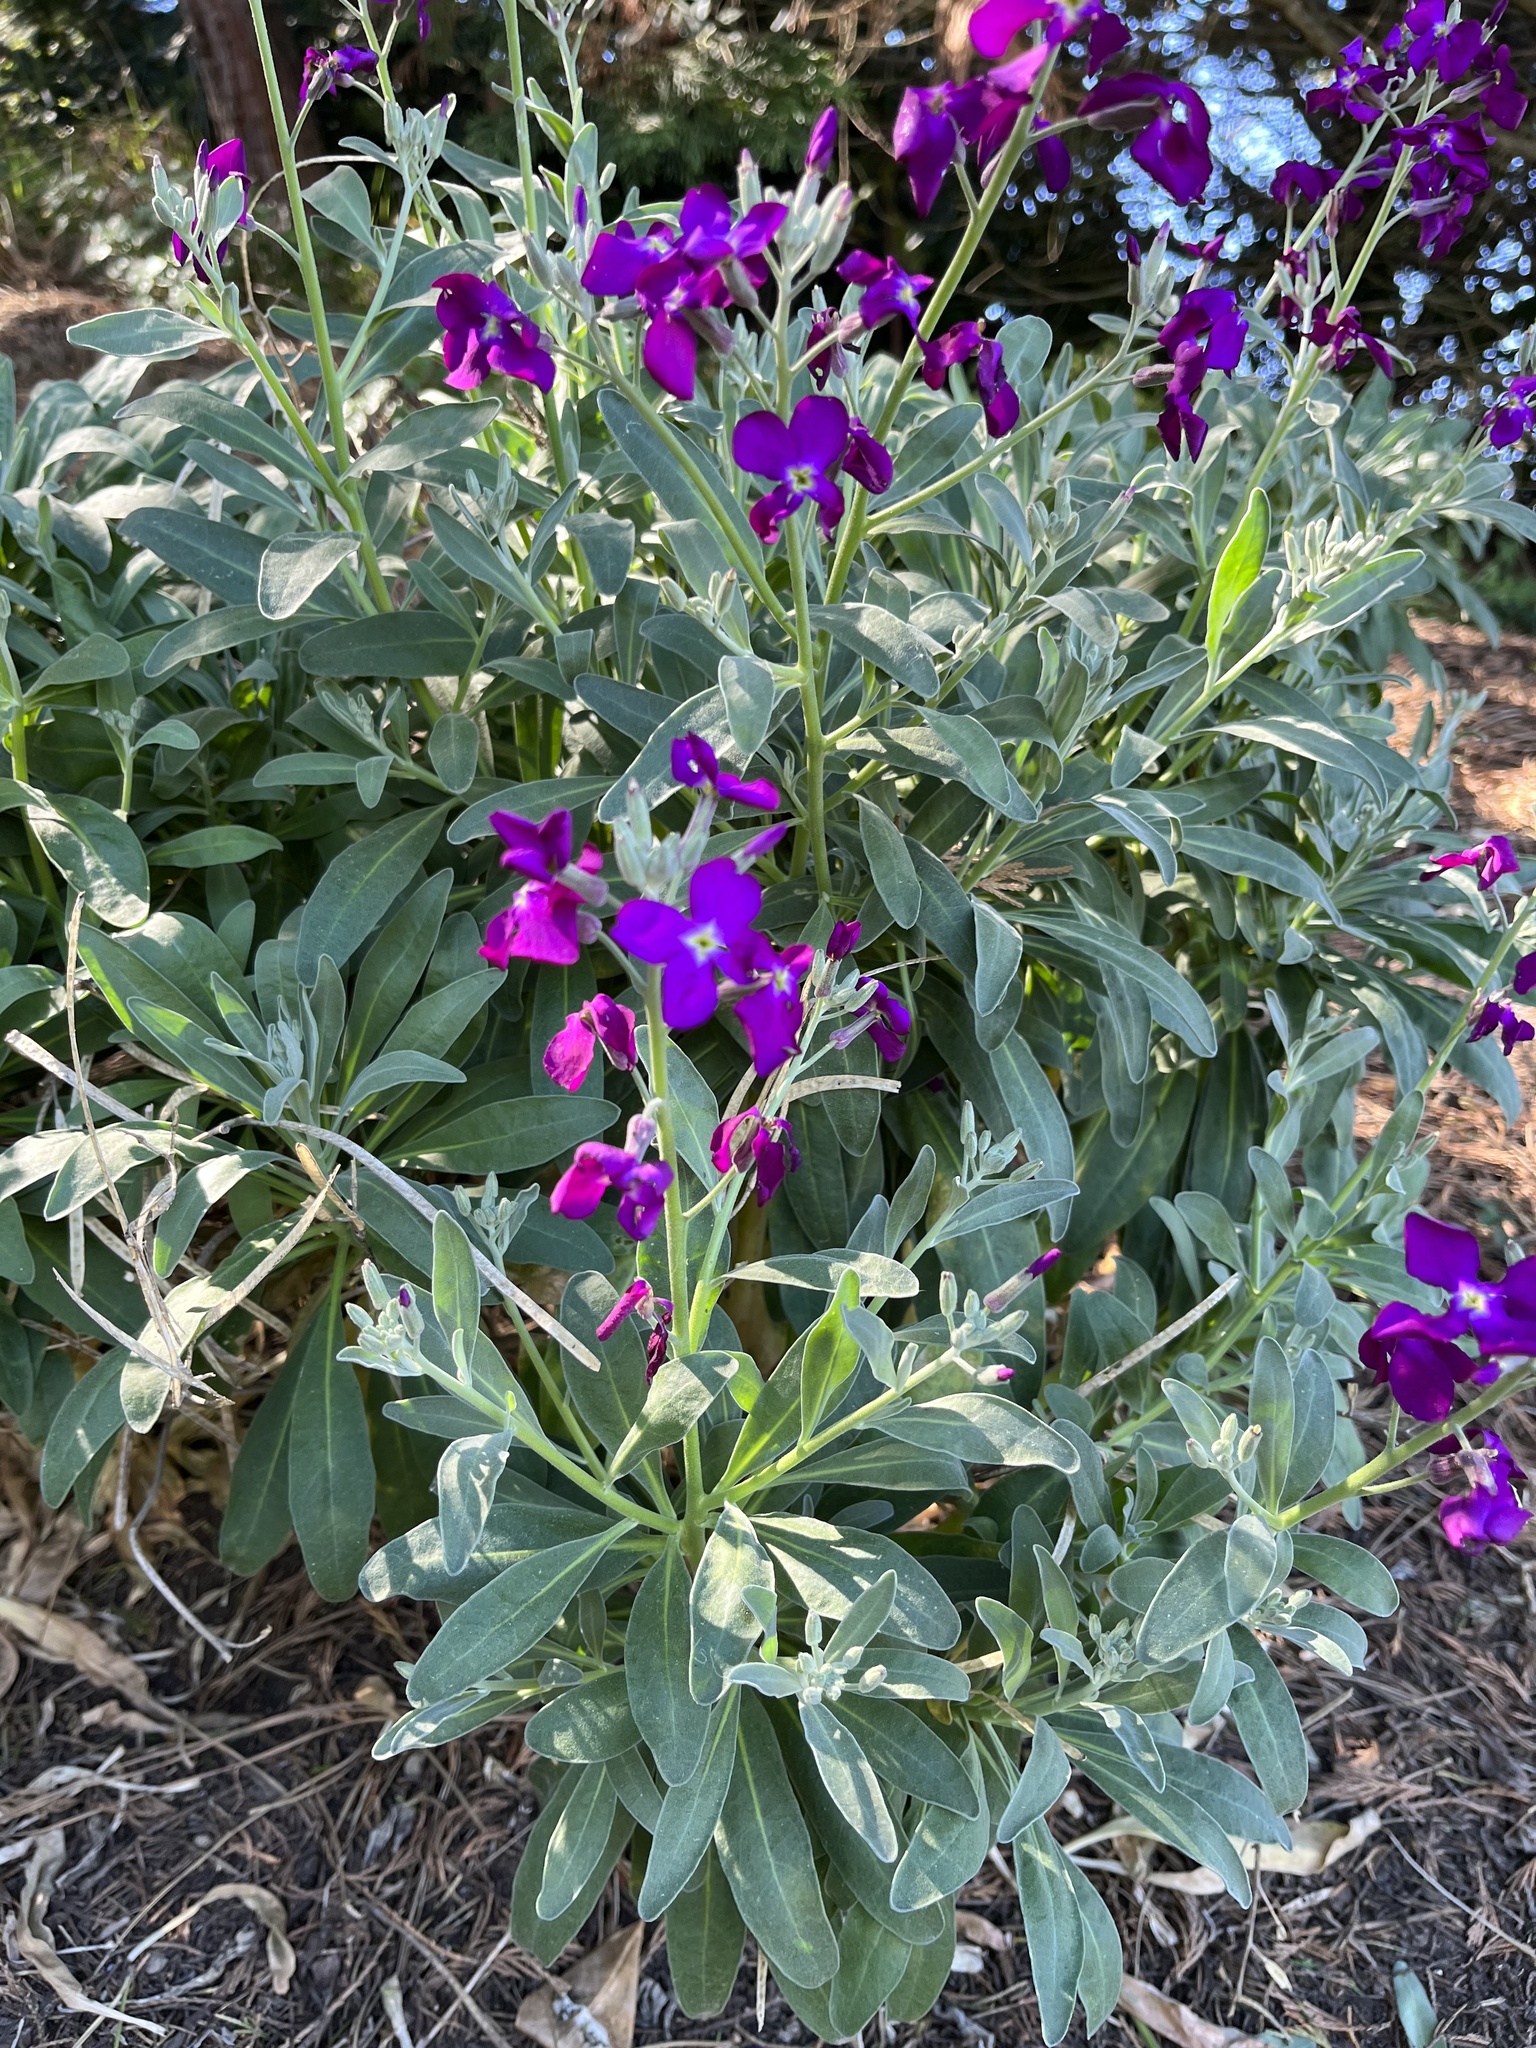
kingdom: Plantae
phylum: Tracheophyta
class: Magnoliopsida
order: Brassicales
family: Brassicaceae
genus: Matthiola
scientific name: Matthiola incana
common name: Hoary stock
